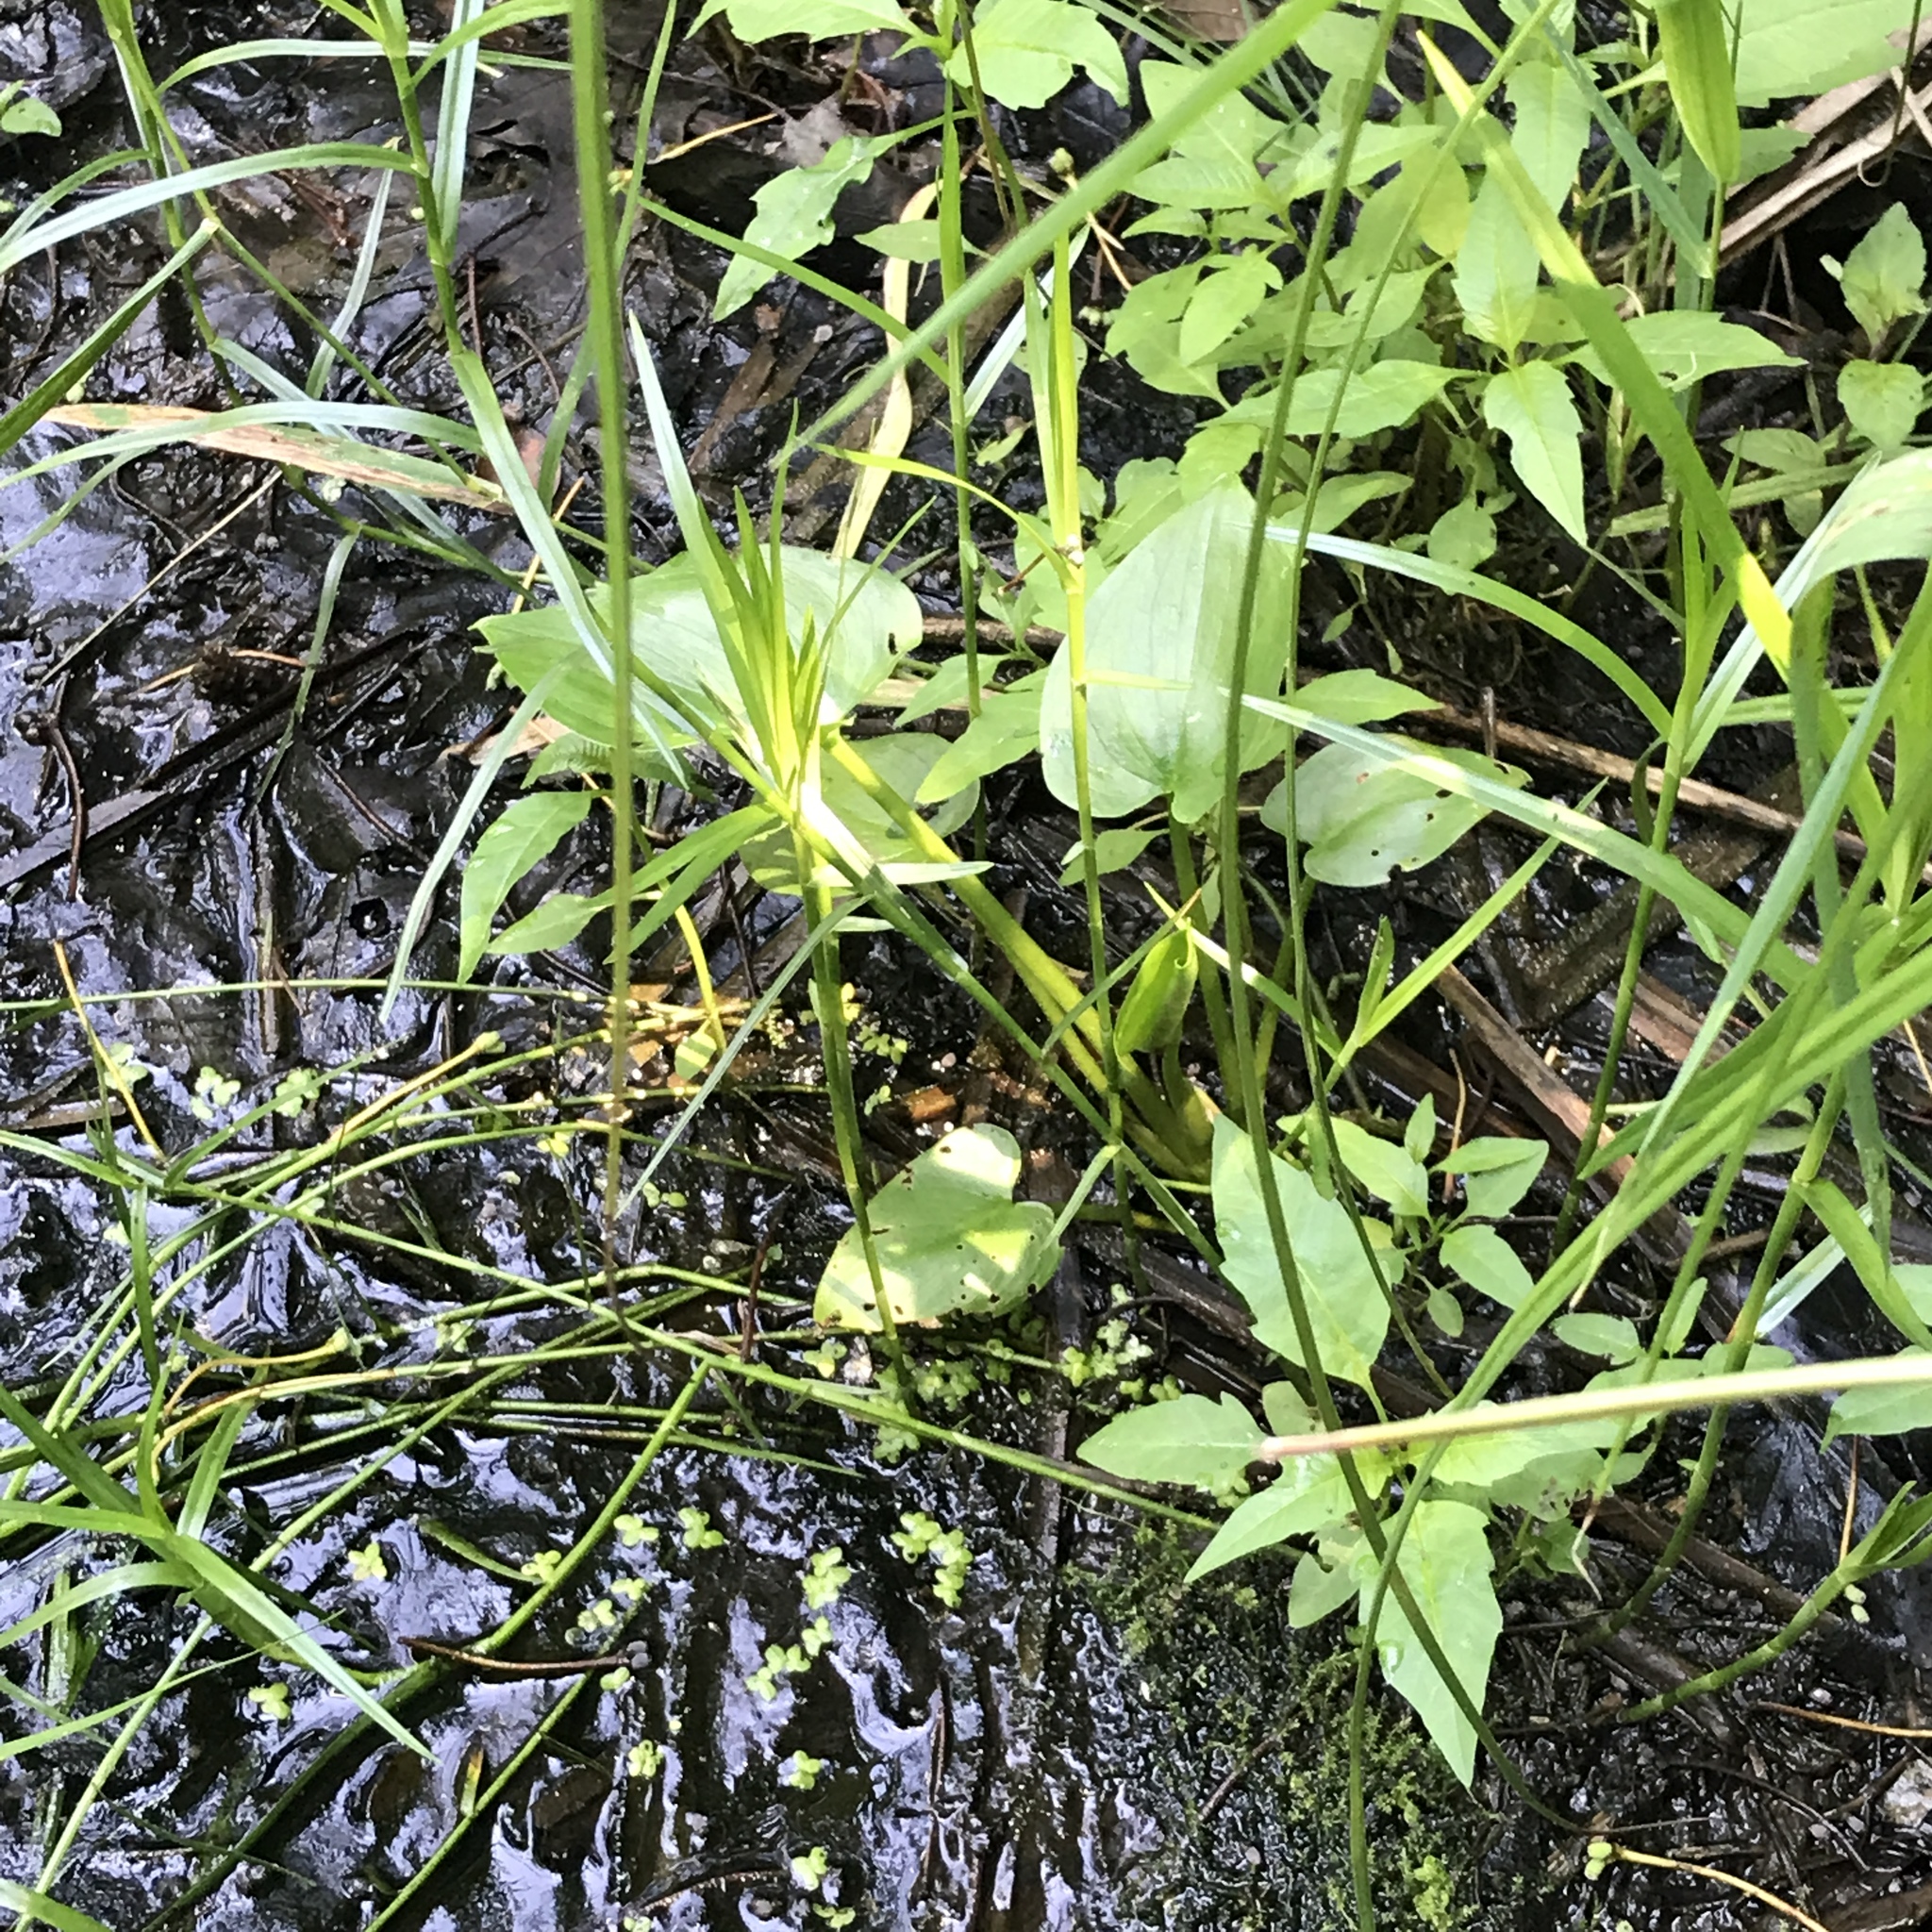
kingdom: Plantae
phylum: Tracheophyta
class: Liliopsida
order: Alismatales
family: Araceae
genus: Calla
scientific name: Calla palustris
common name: Bog arum
